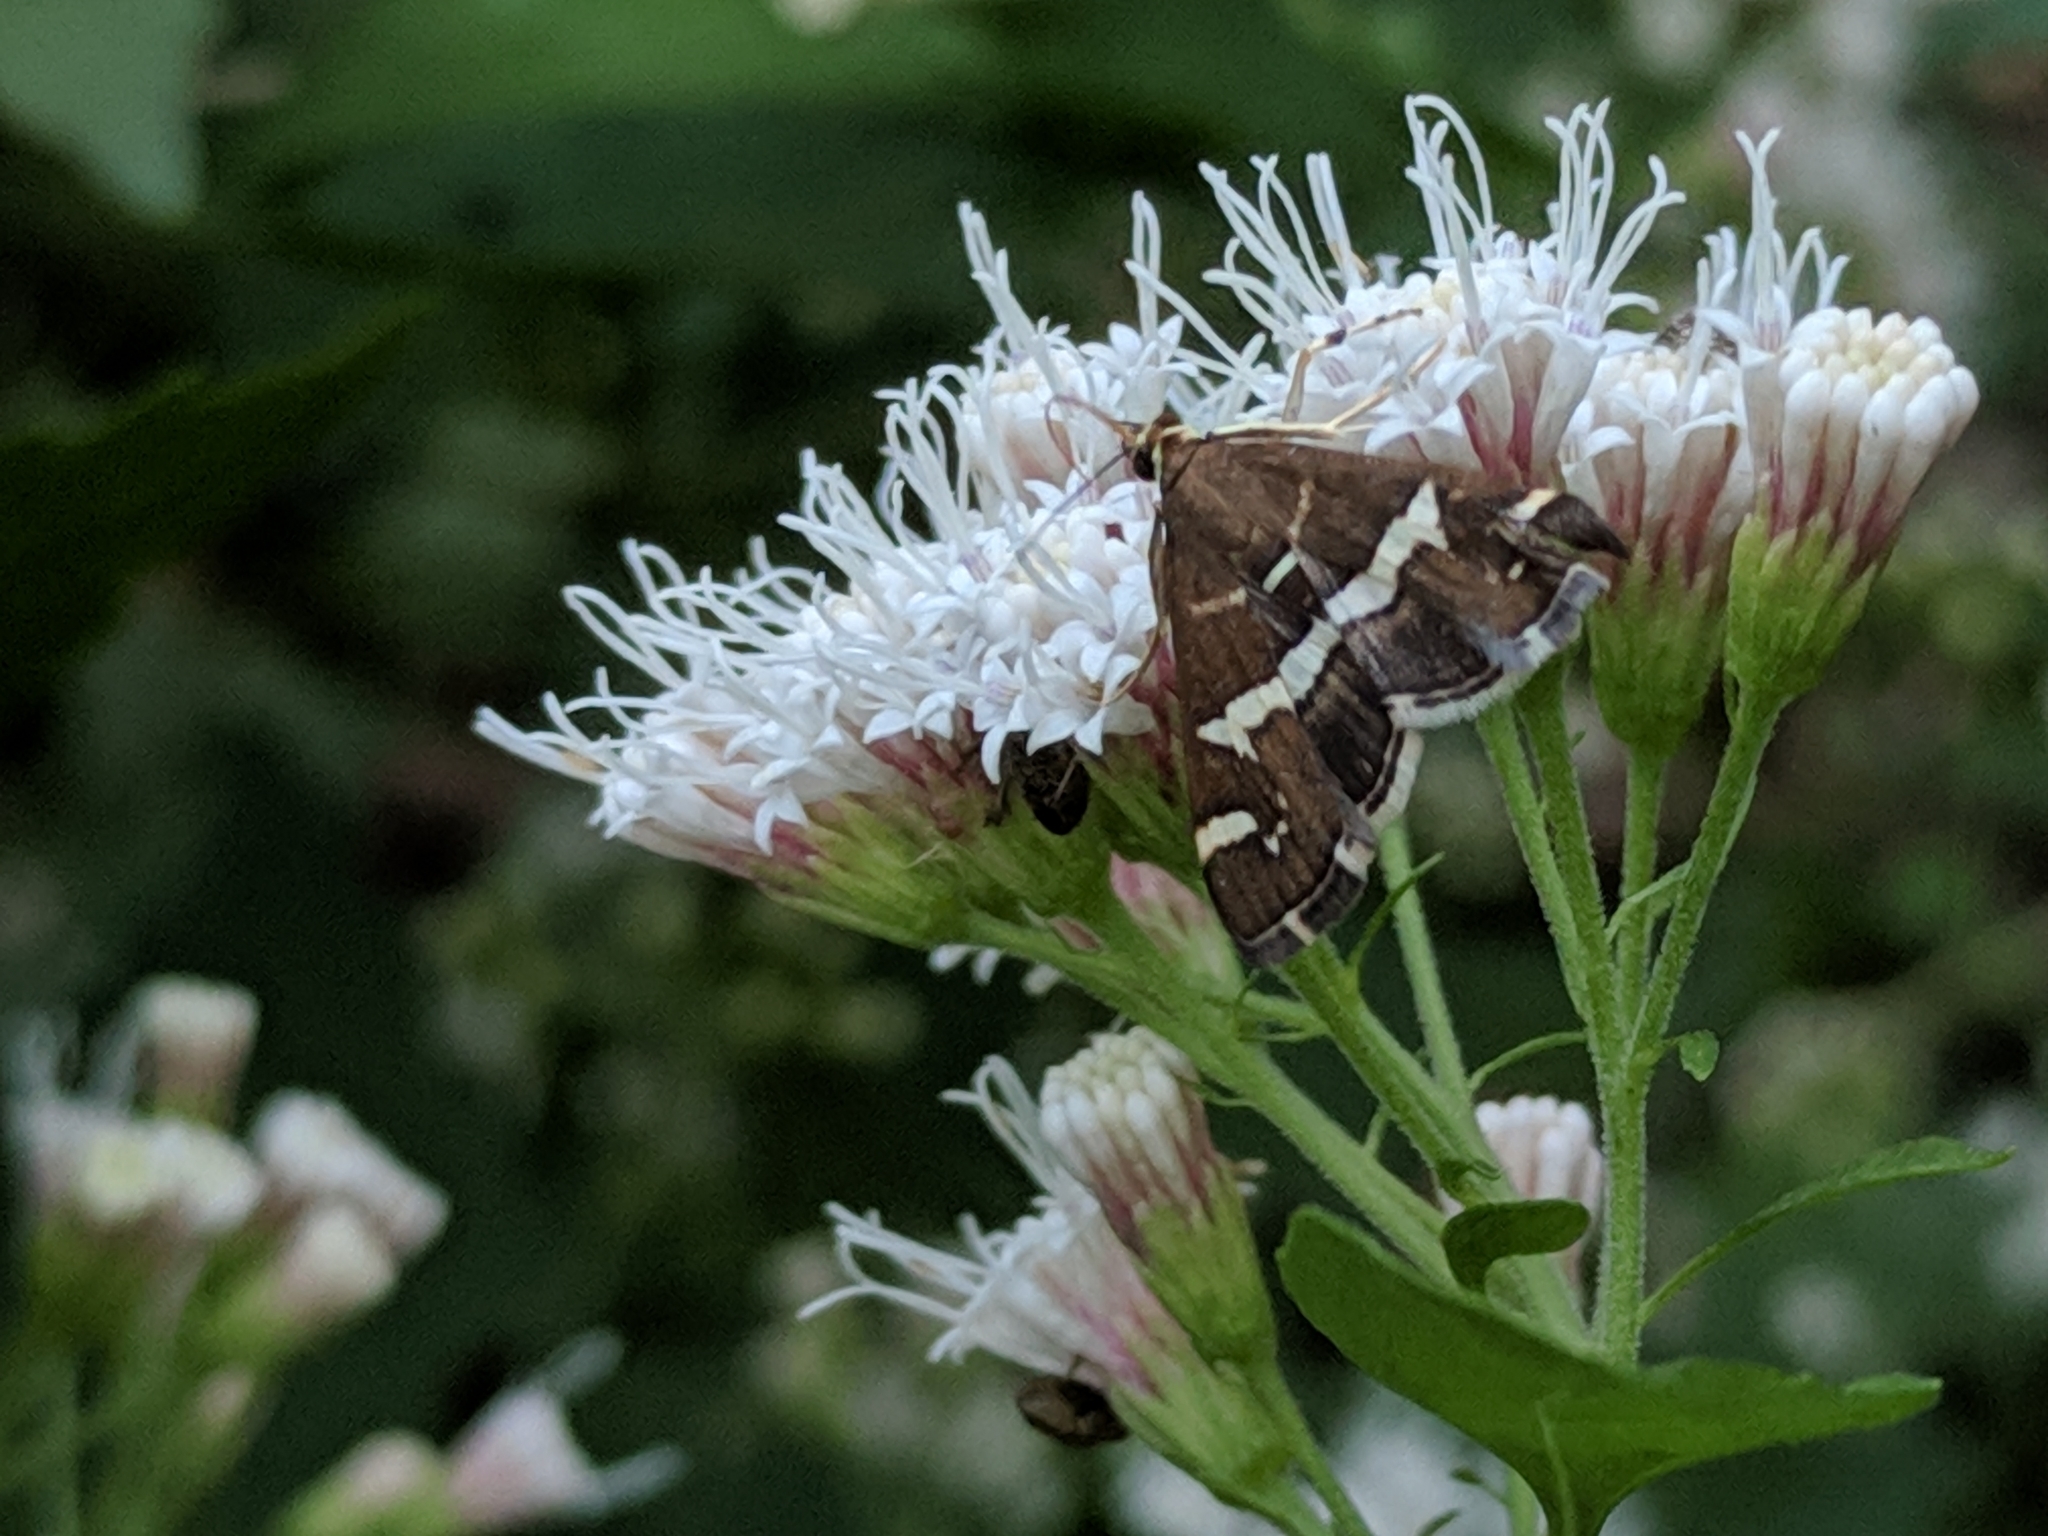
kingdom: Animalia
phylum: Arthropoda
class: Insecta
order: Lepidoptera
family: Crambidae
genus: Spoladea
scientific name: Spoladea recurvalis
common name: Beet webworm moth
